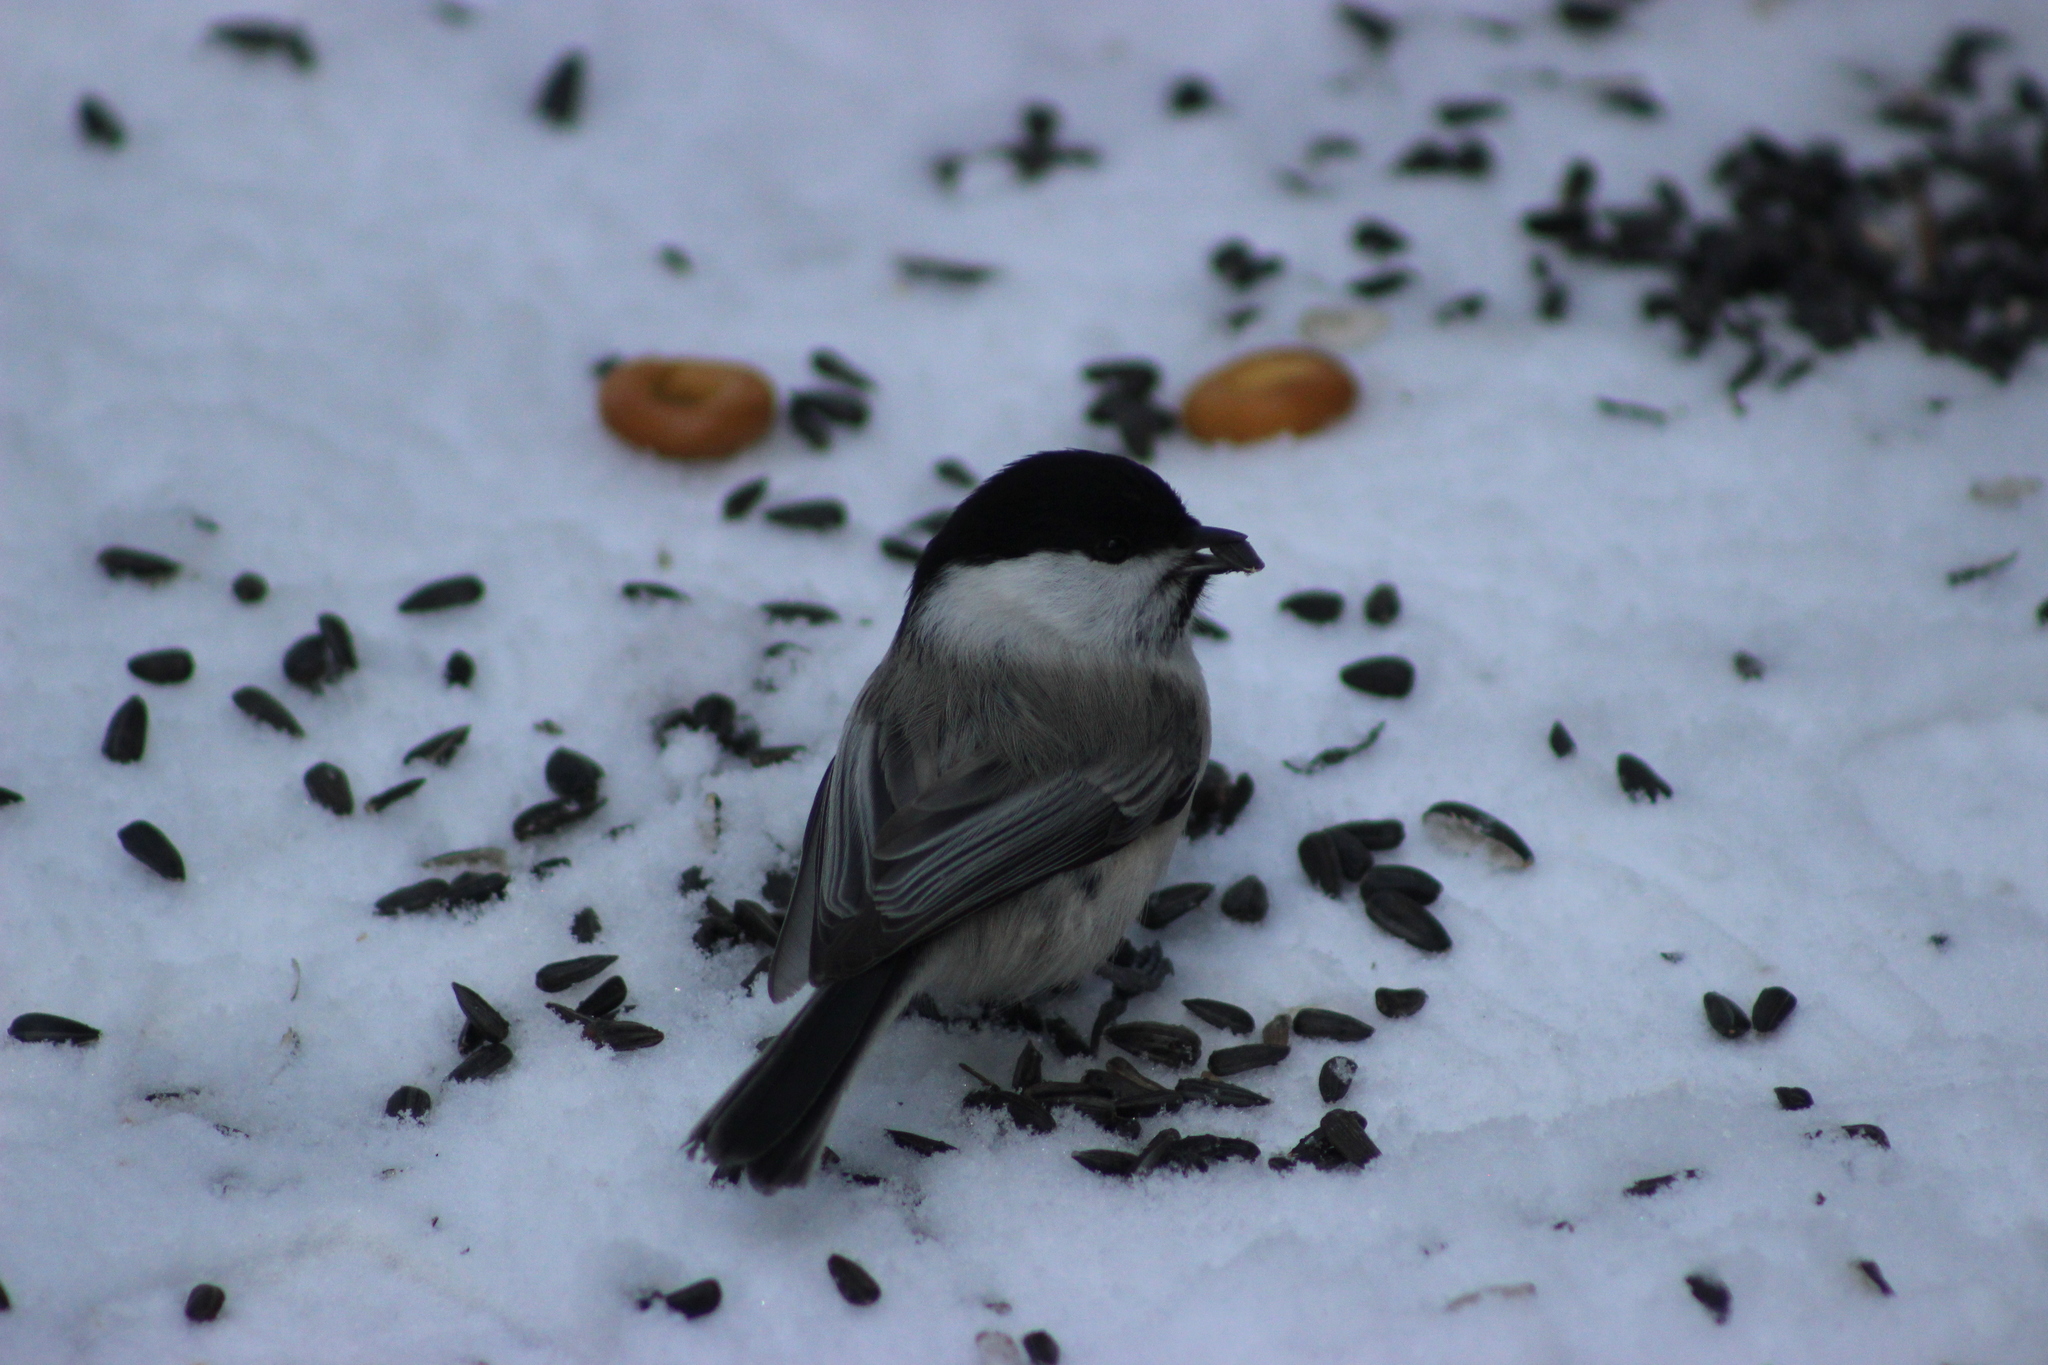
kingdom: Animalia
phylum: Chordata
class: Aves
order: Passeriformes
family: Paridae
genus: Poecile
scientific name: Poecile montanus
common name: Willow tit
